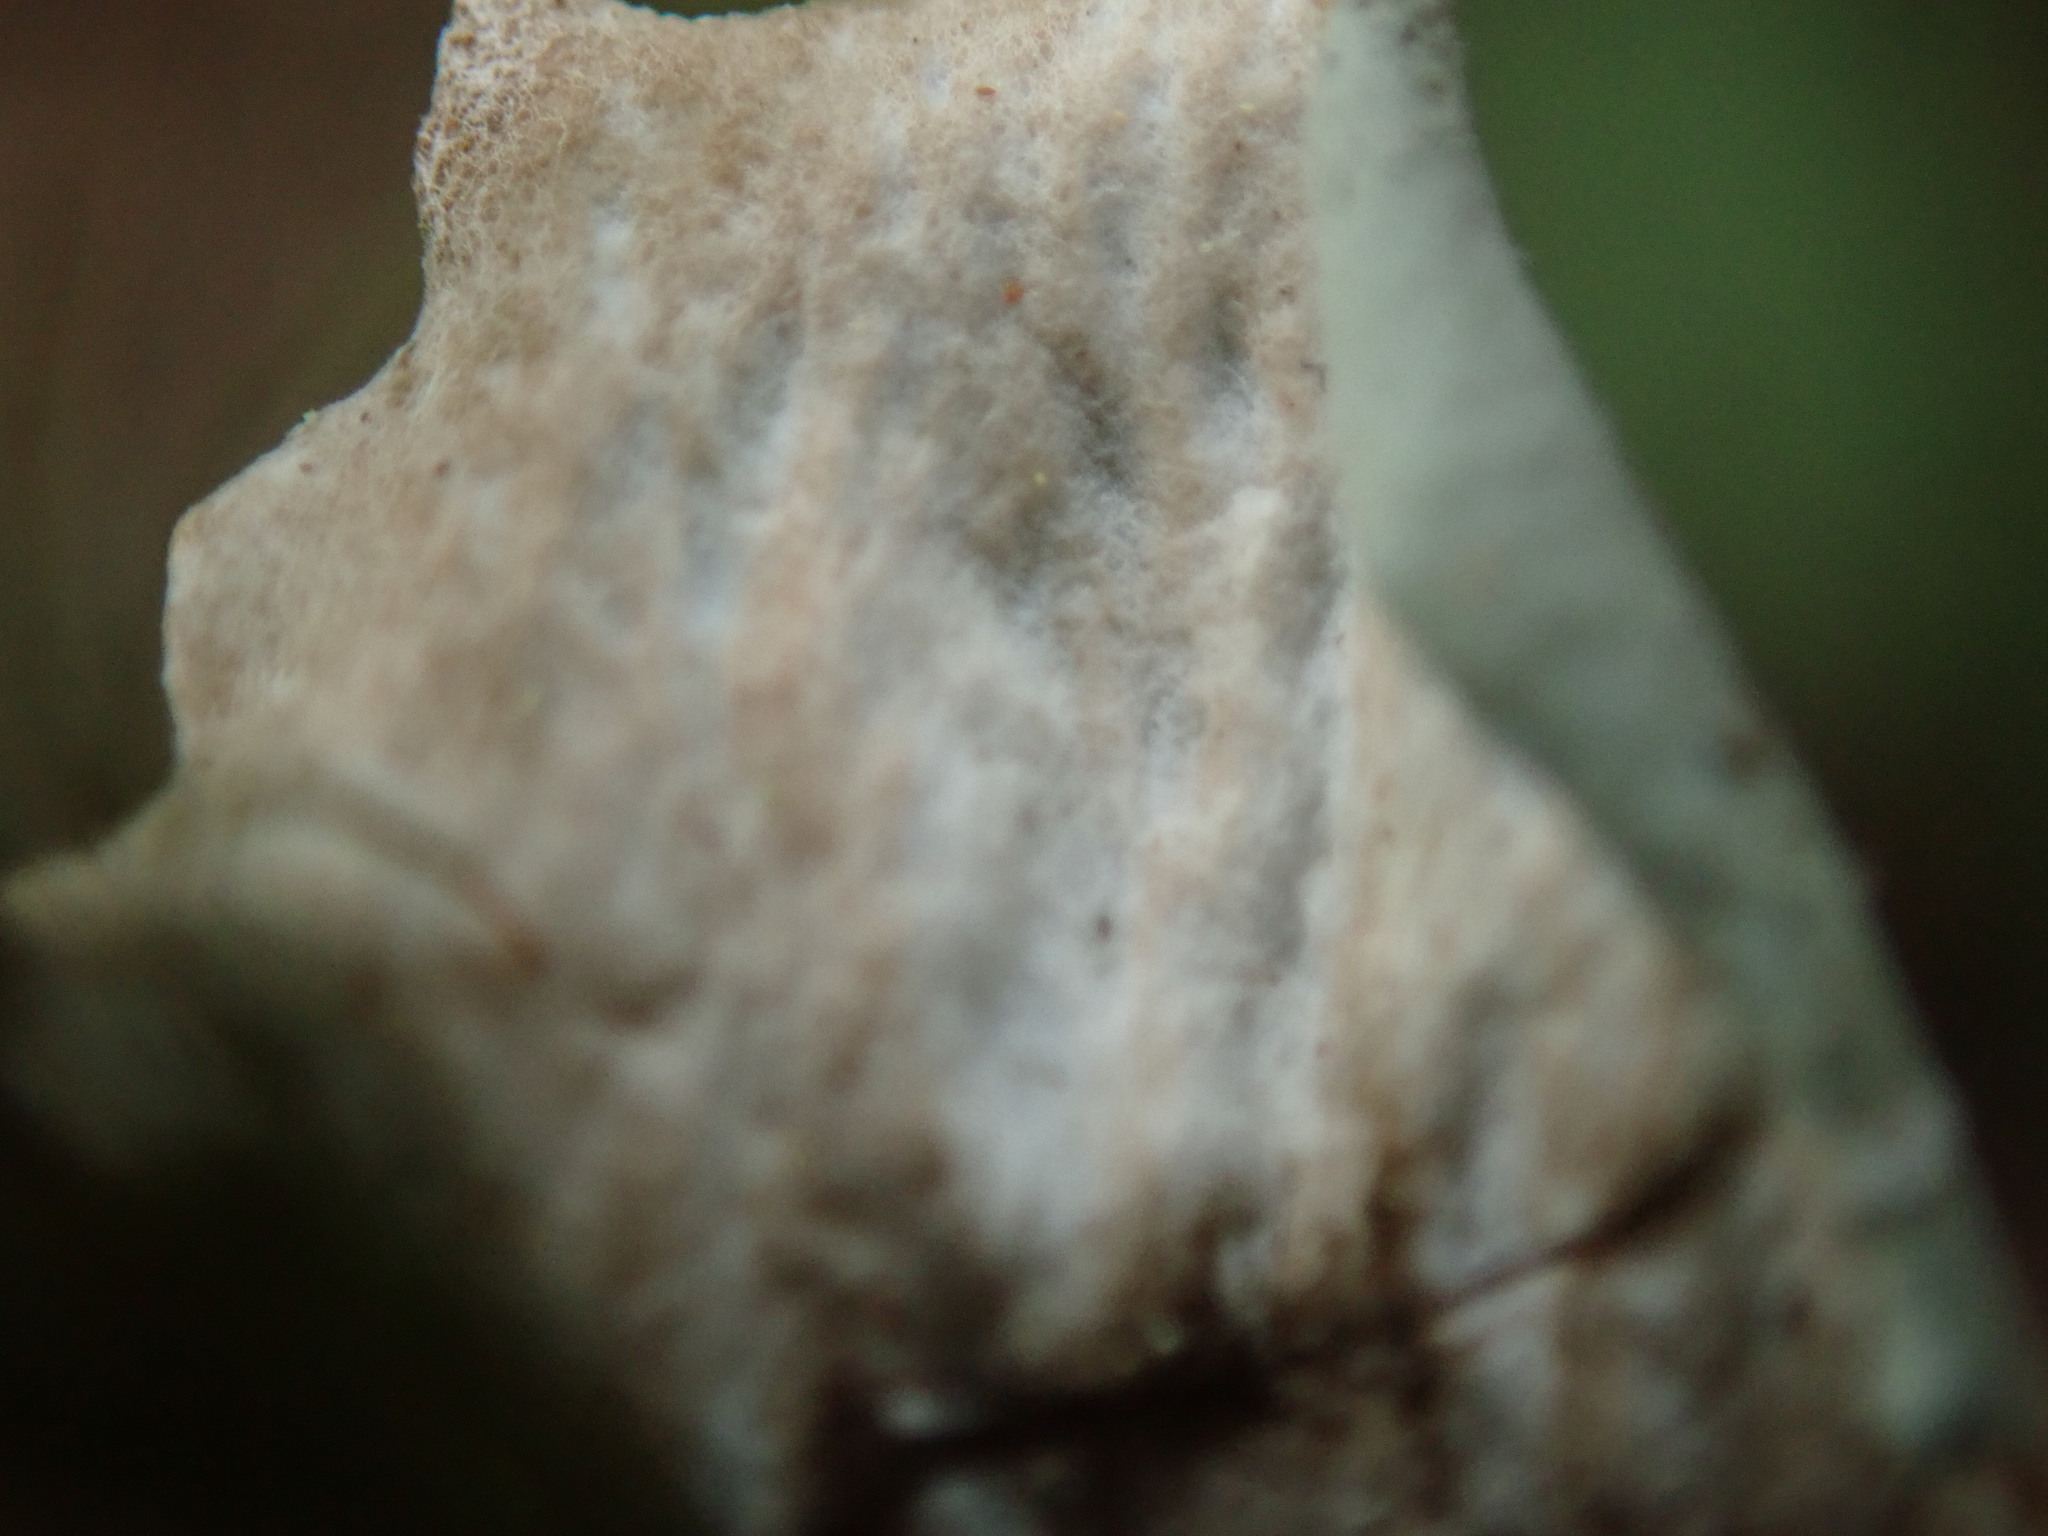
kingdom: Fungi
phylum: Ascomycota
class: Lecanoromycetes
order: Peltigerales
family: Peltigeraceae
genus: Peltigera
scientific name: Peltigera britannica
